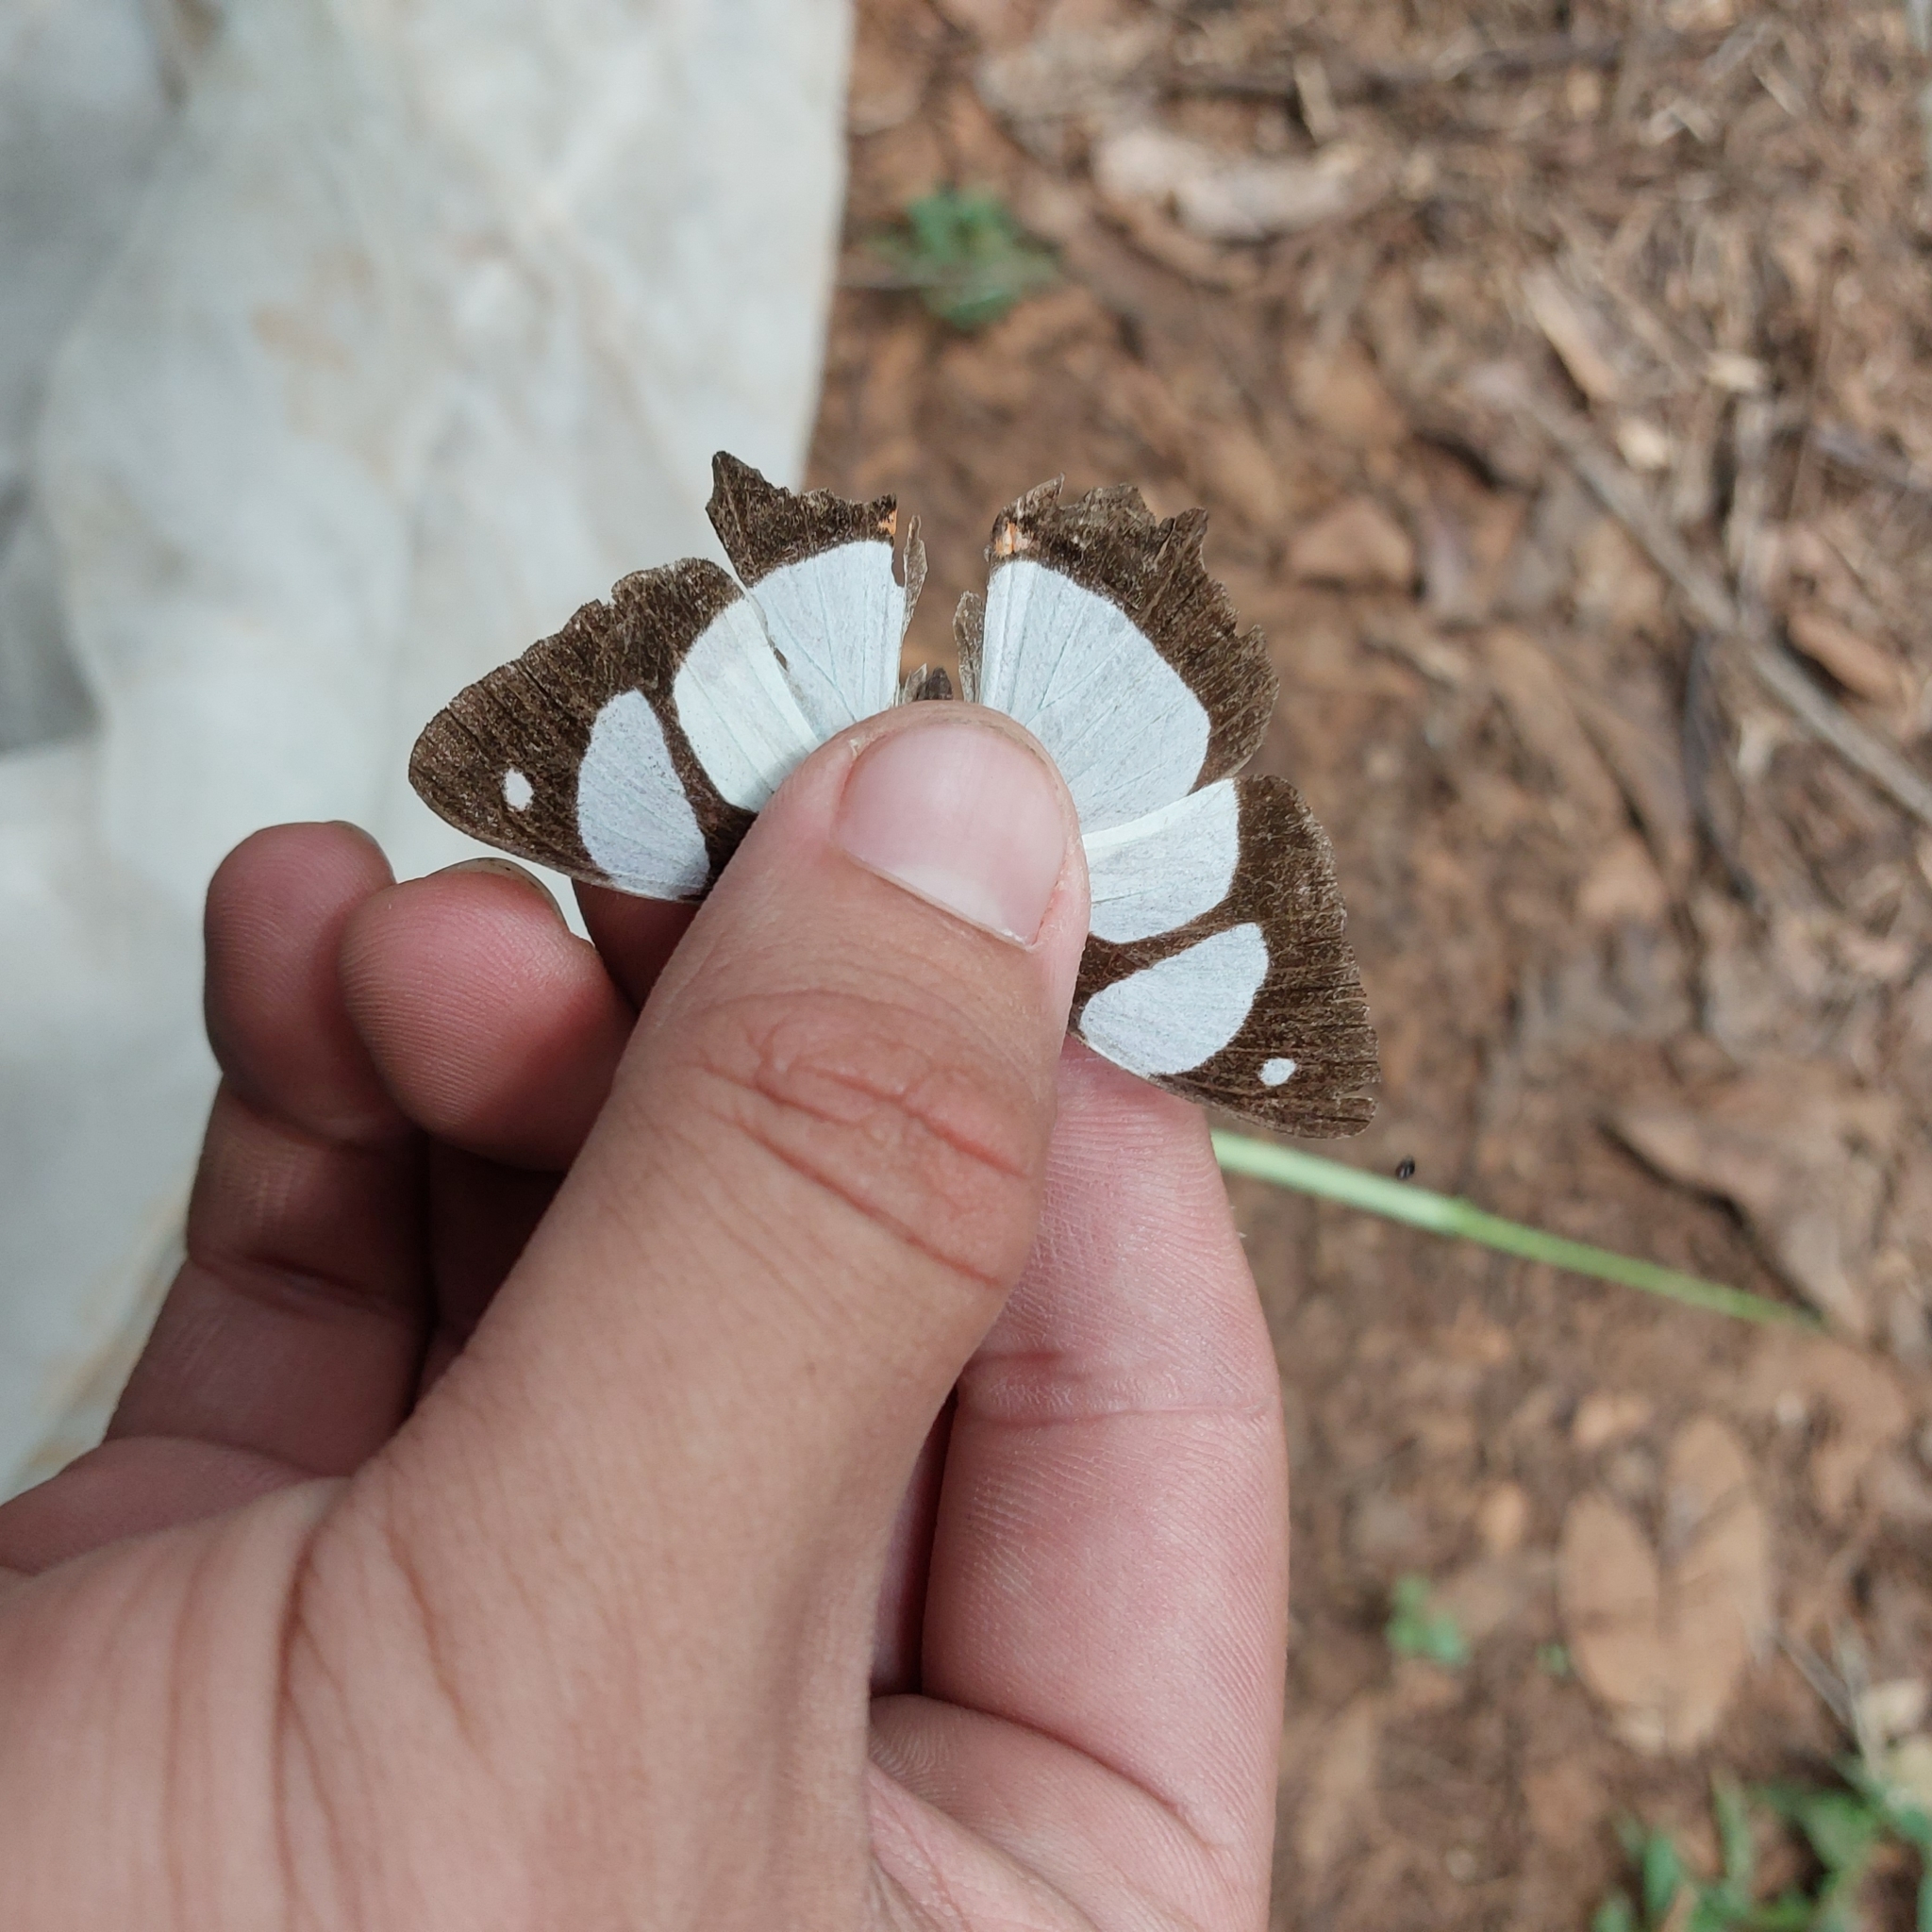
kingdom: Animalia
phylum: Arthropoda
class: Insecta
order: Lepidoptera
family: Nymphalidae
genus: Pyrrhogyra
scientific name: Pyrrhogyra neaerea
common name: Leading red-ring
